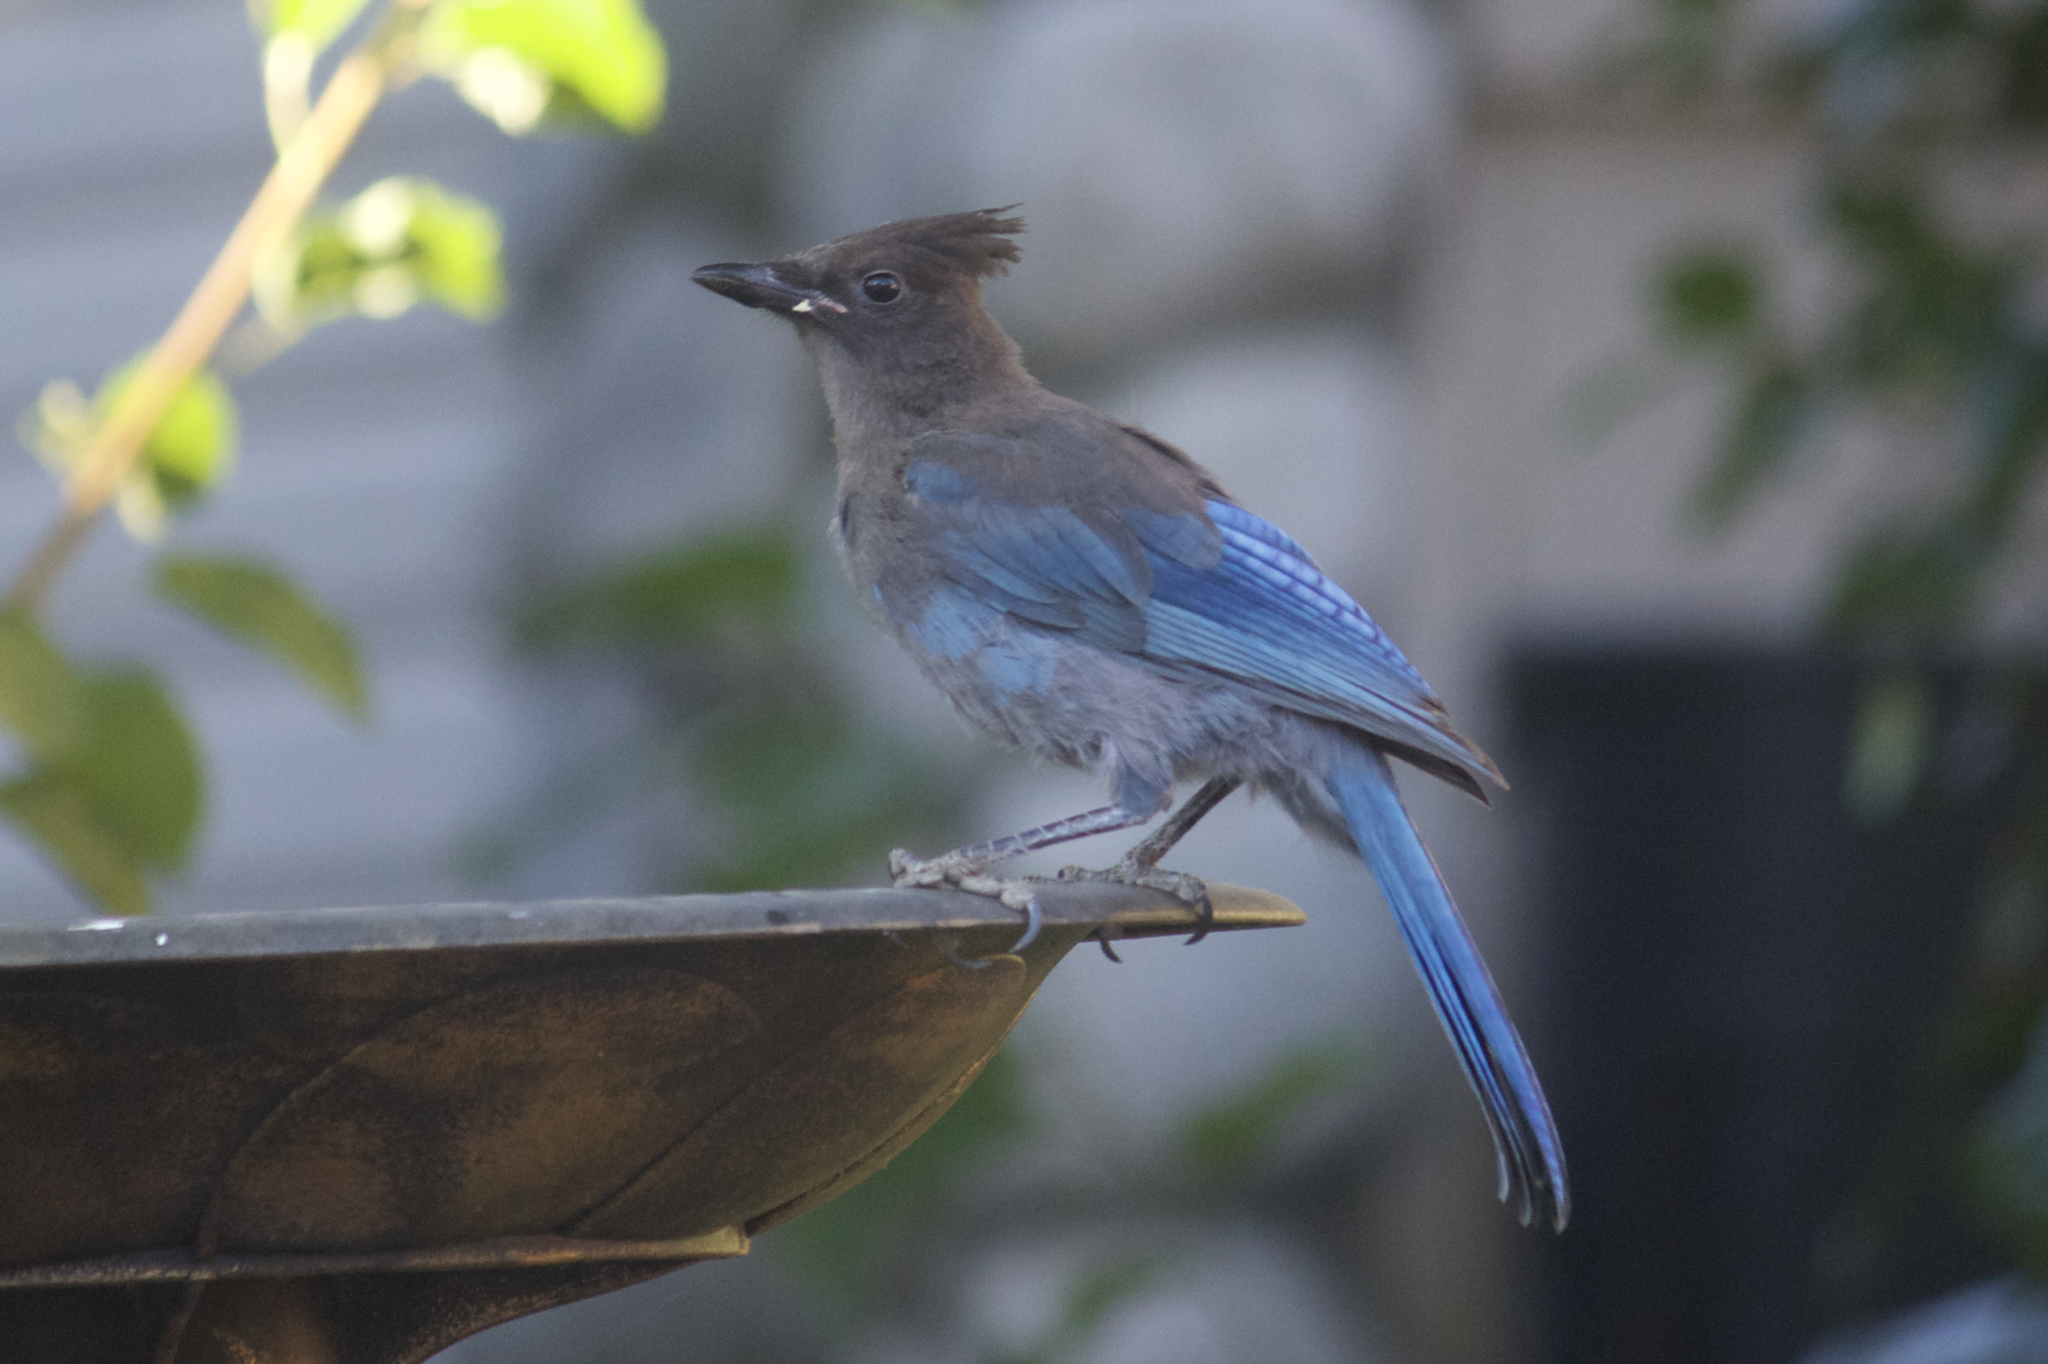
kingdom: Animalia
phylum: Chordata
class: Aves
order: Passeriformes
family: Corvidae
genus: Cyanocitta
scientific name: Cyanocitta stelleri
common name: Steller's jay
